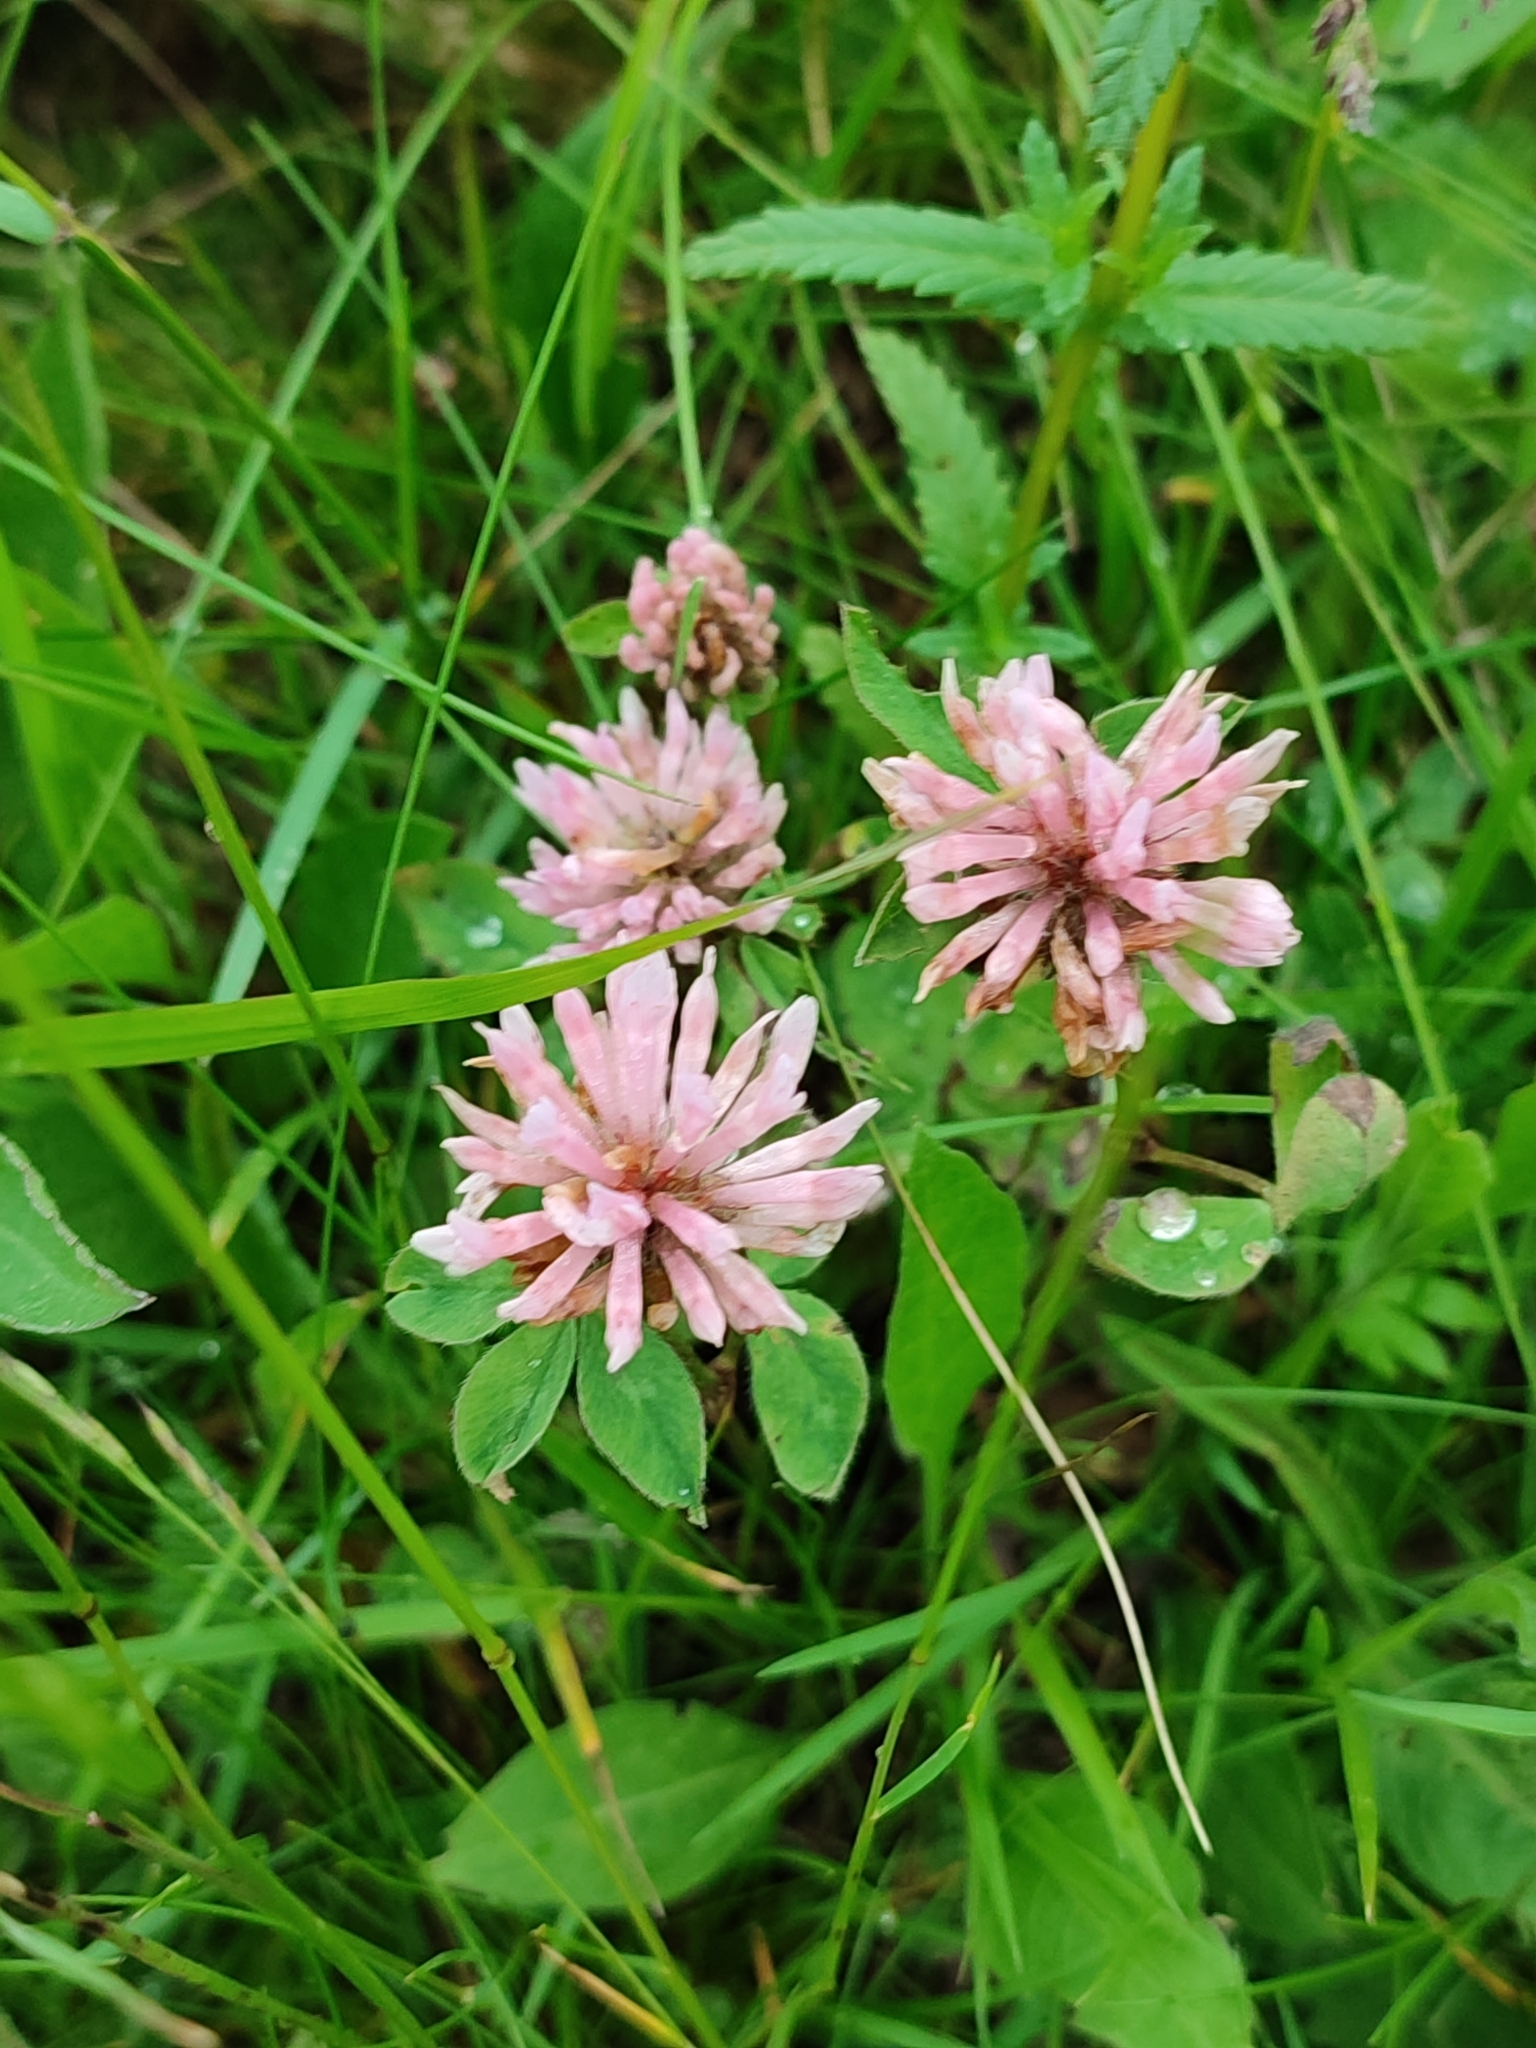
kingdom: Plantae
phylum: Tracheophyta
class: Magnoliopsida
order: Fabales
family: Fabaceae
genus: Trifolium
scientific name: Trifolium hybridum
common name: Alsike clover
